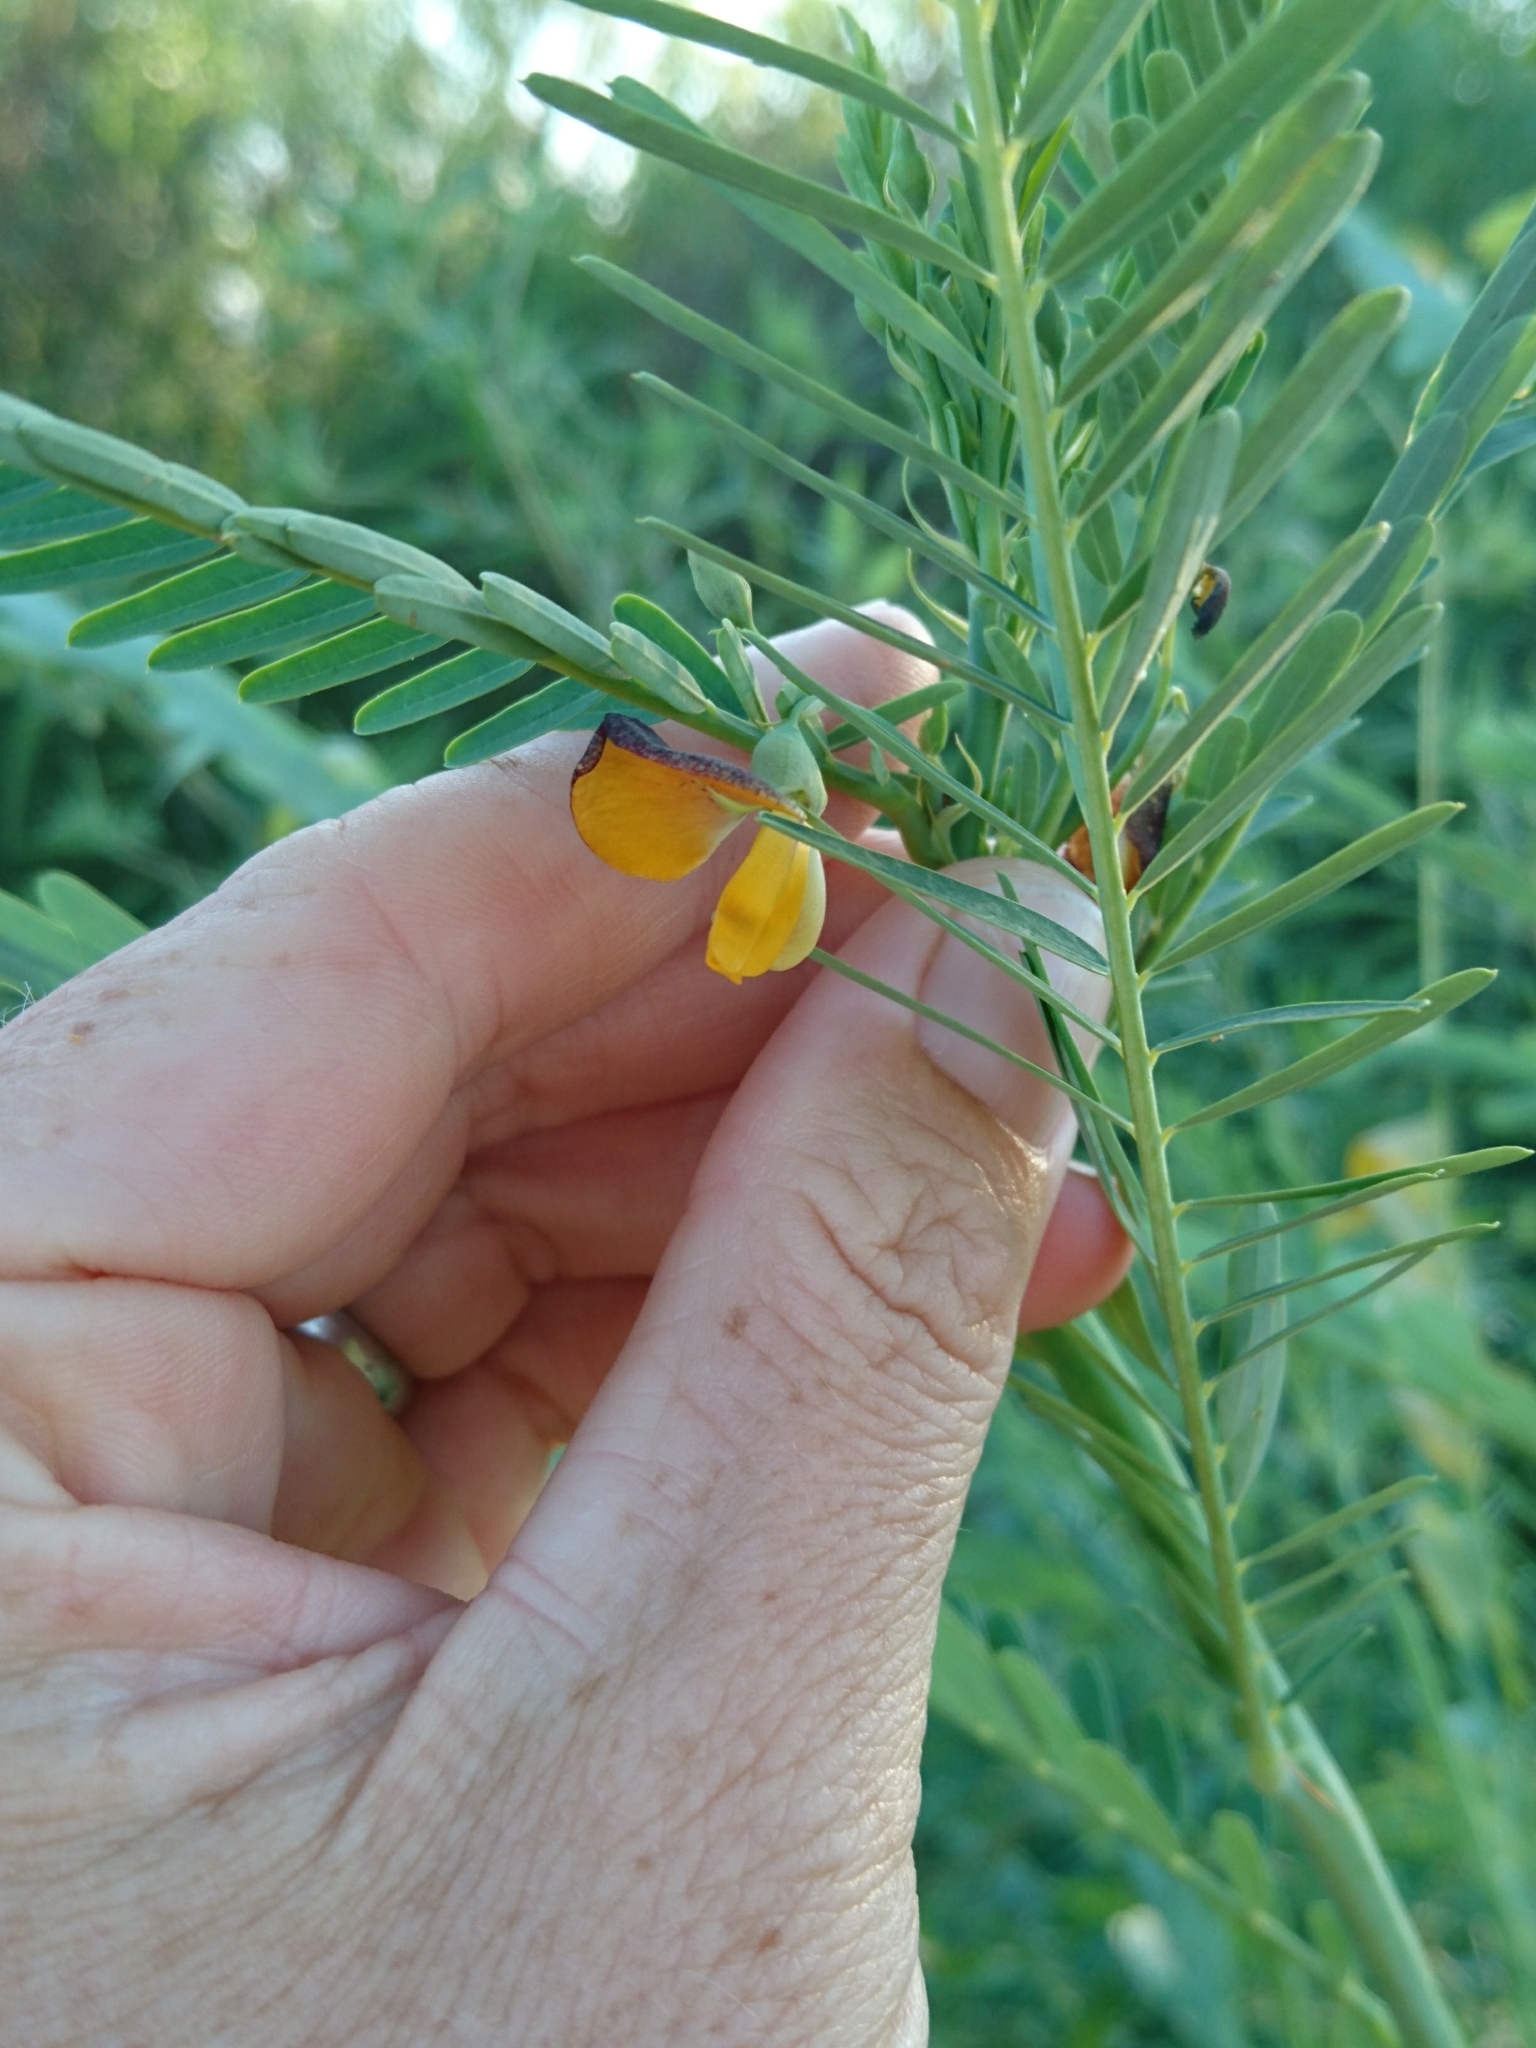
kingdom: Plantae
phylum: Tracheophyta
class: Magnoliopsida
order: Fabales
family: Fabaceae
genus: Sesbania
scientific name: Sesbania herbacea
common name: Bigpod sesbania
